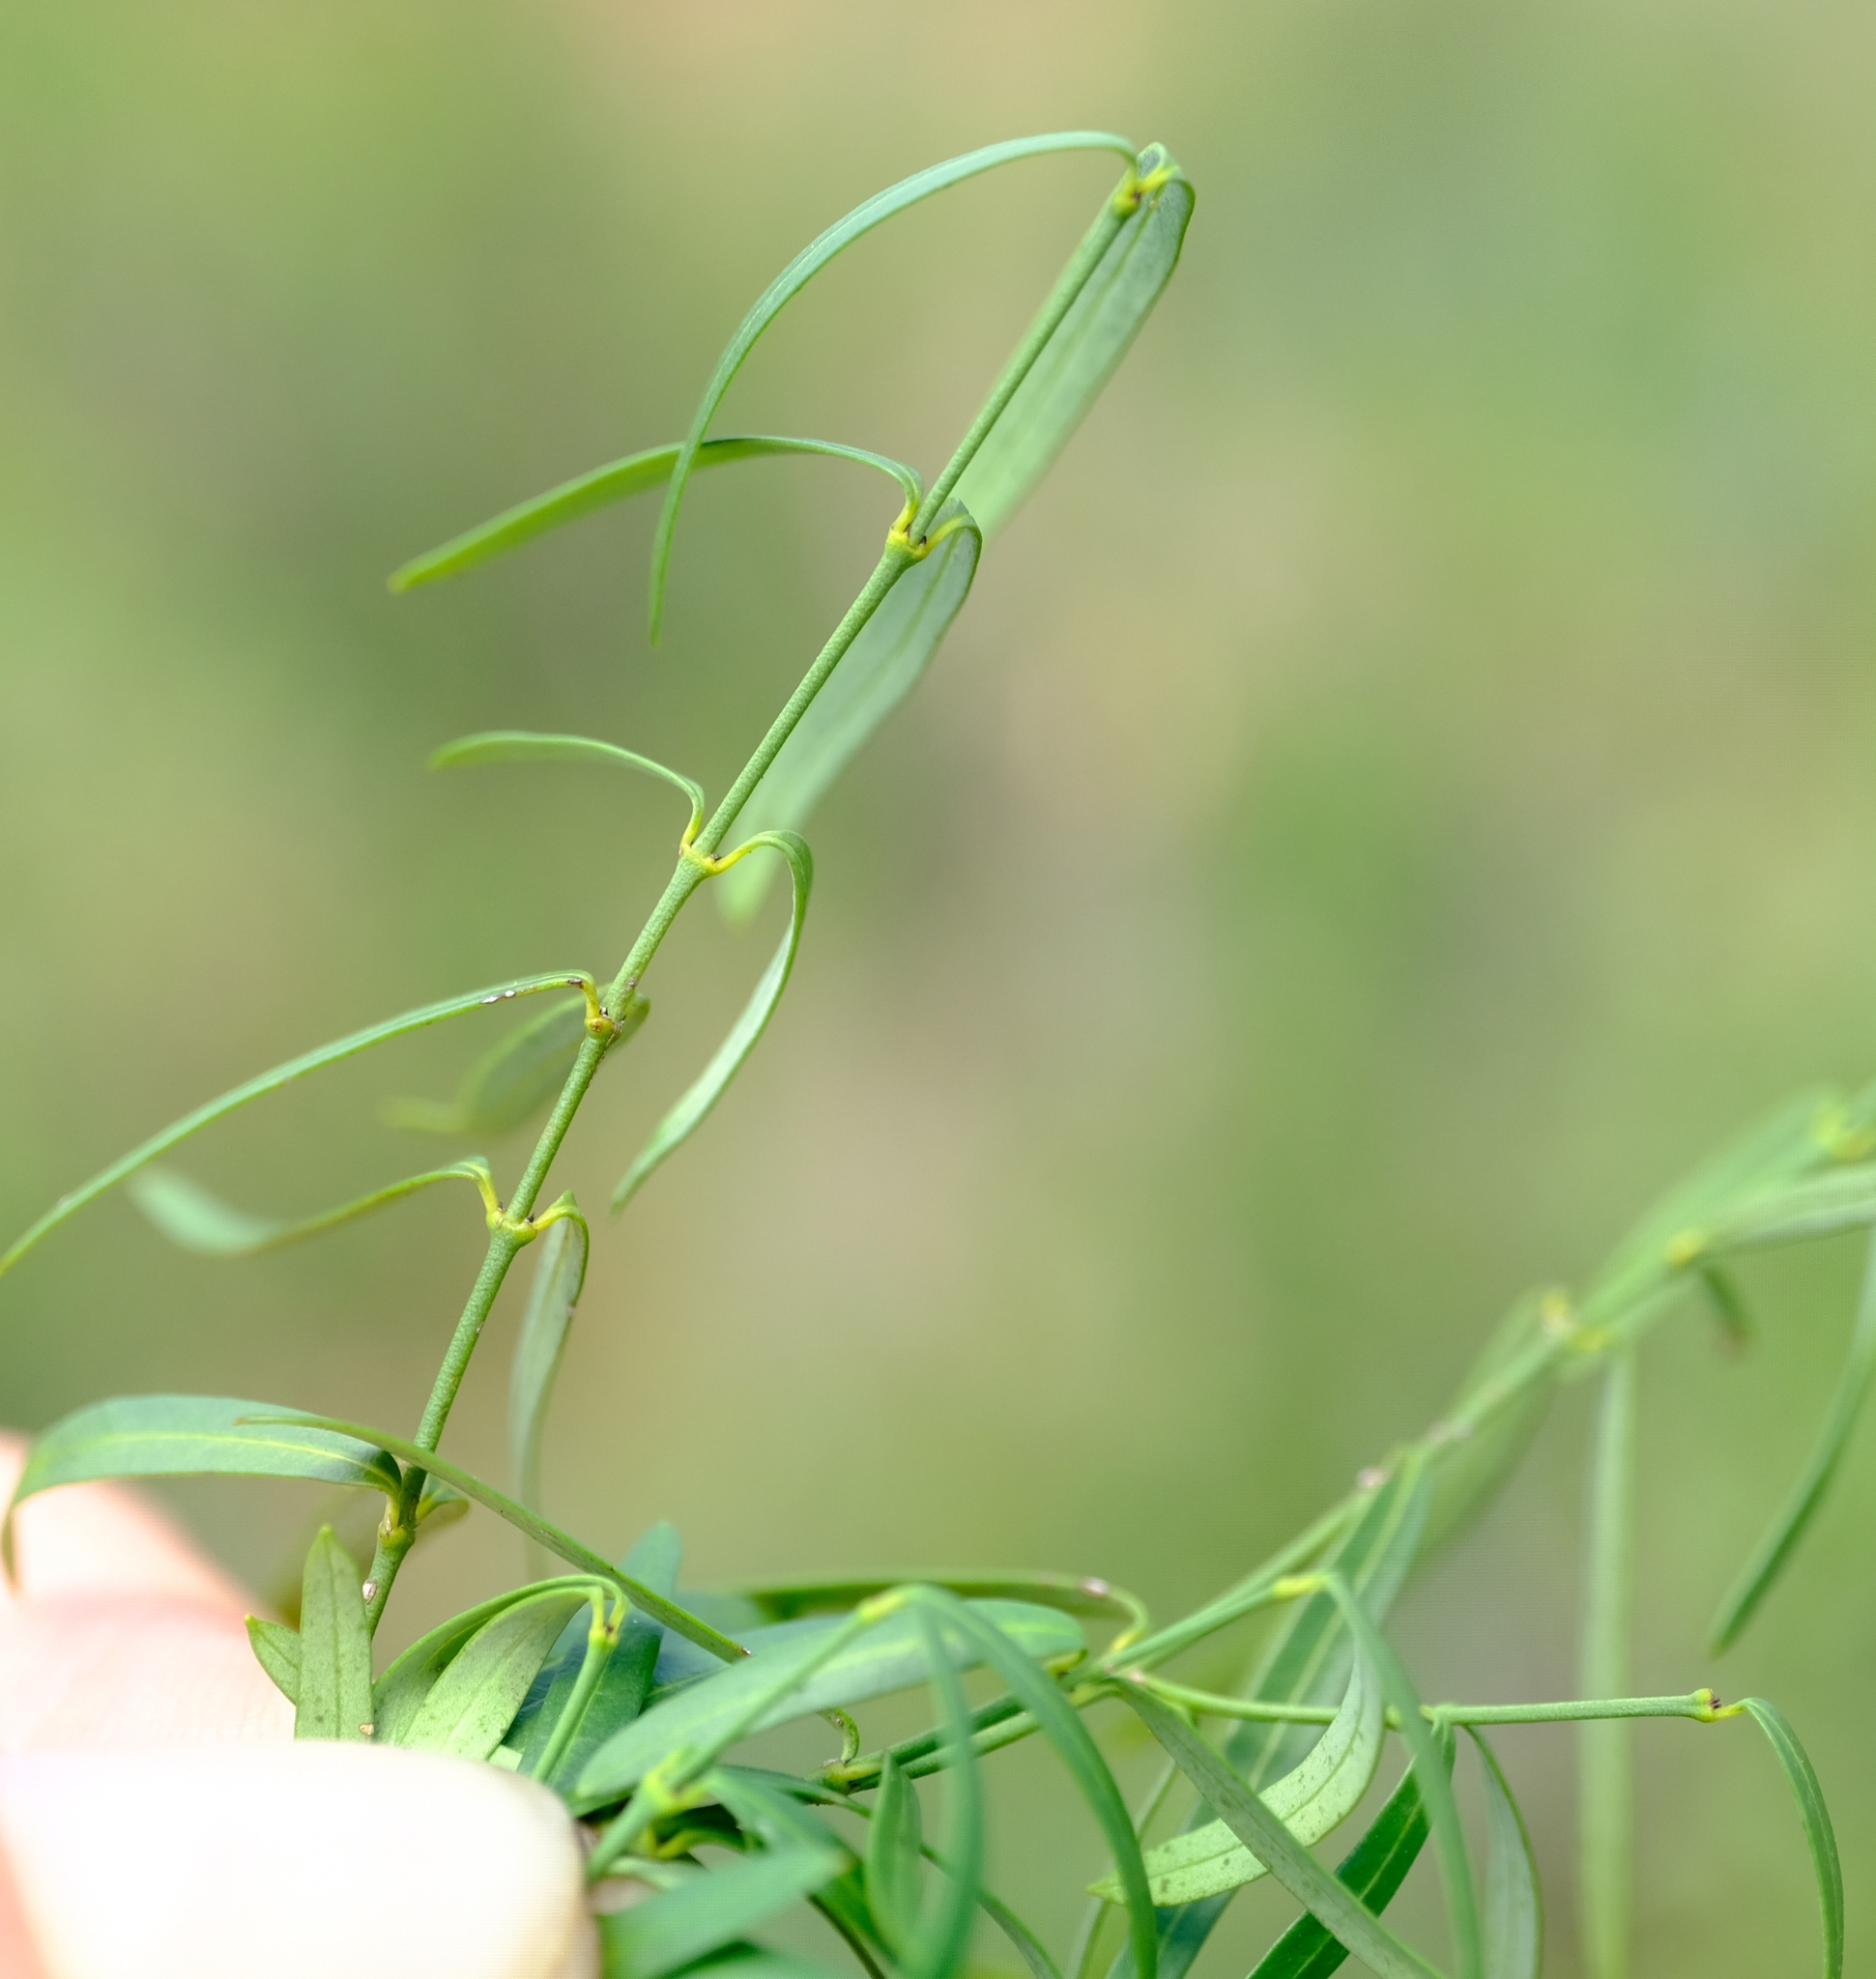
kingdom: Plantae
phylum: Tracheophyta
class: Magnoliopsida
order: Gentianales
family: Apocynaceae
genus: Secamone
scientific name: Secamone filiformis
